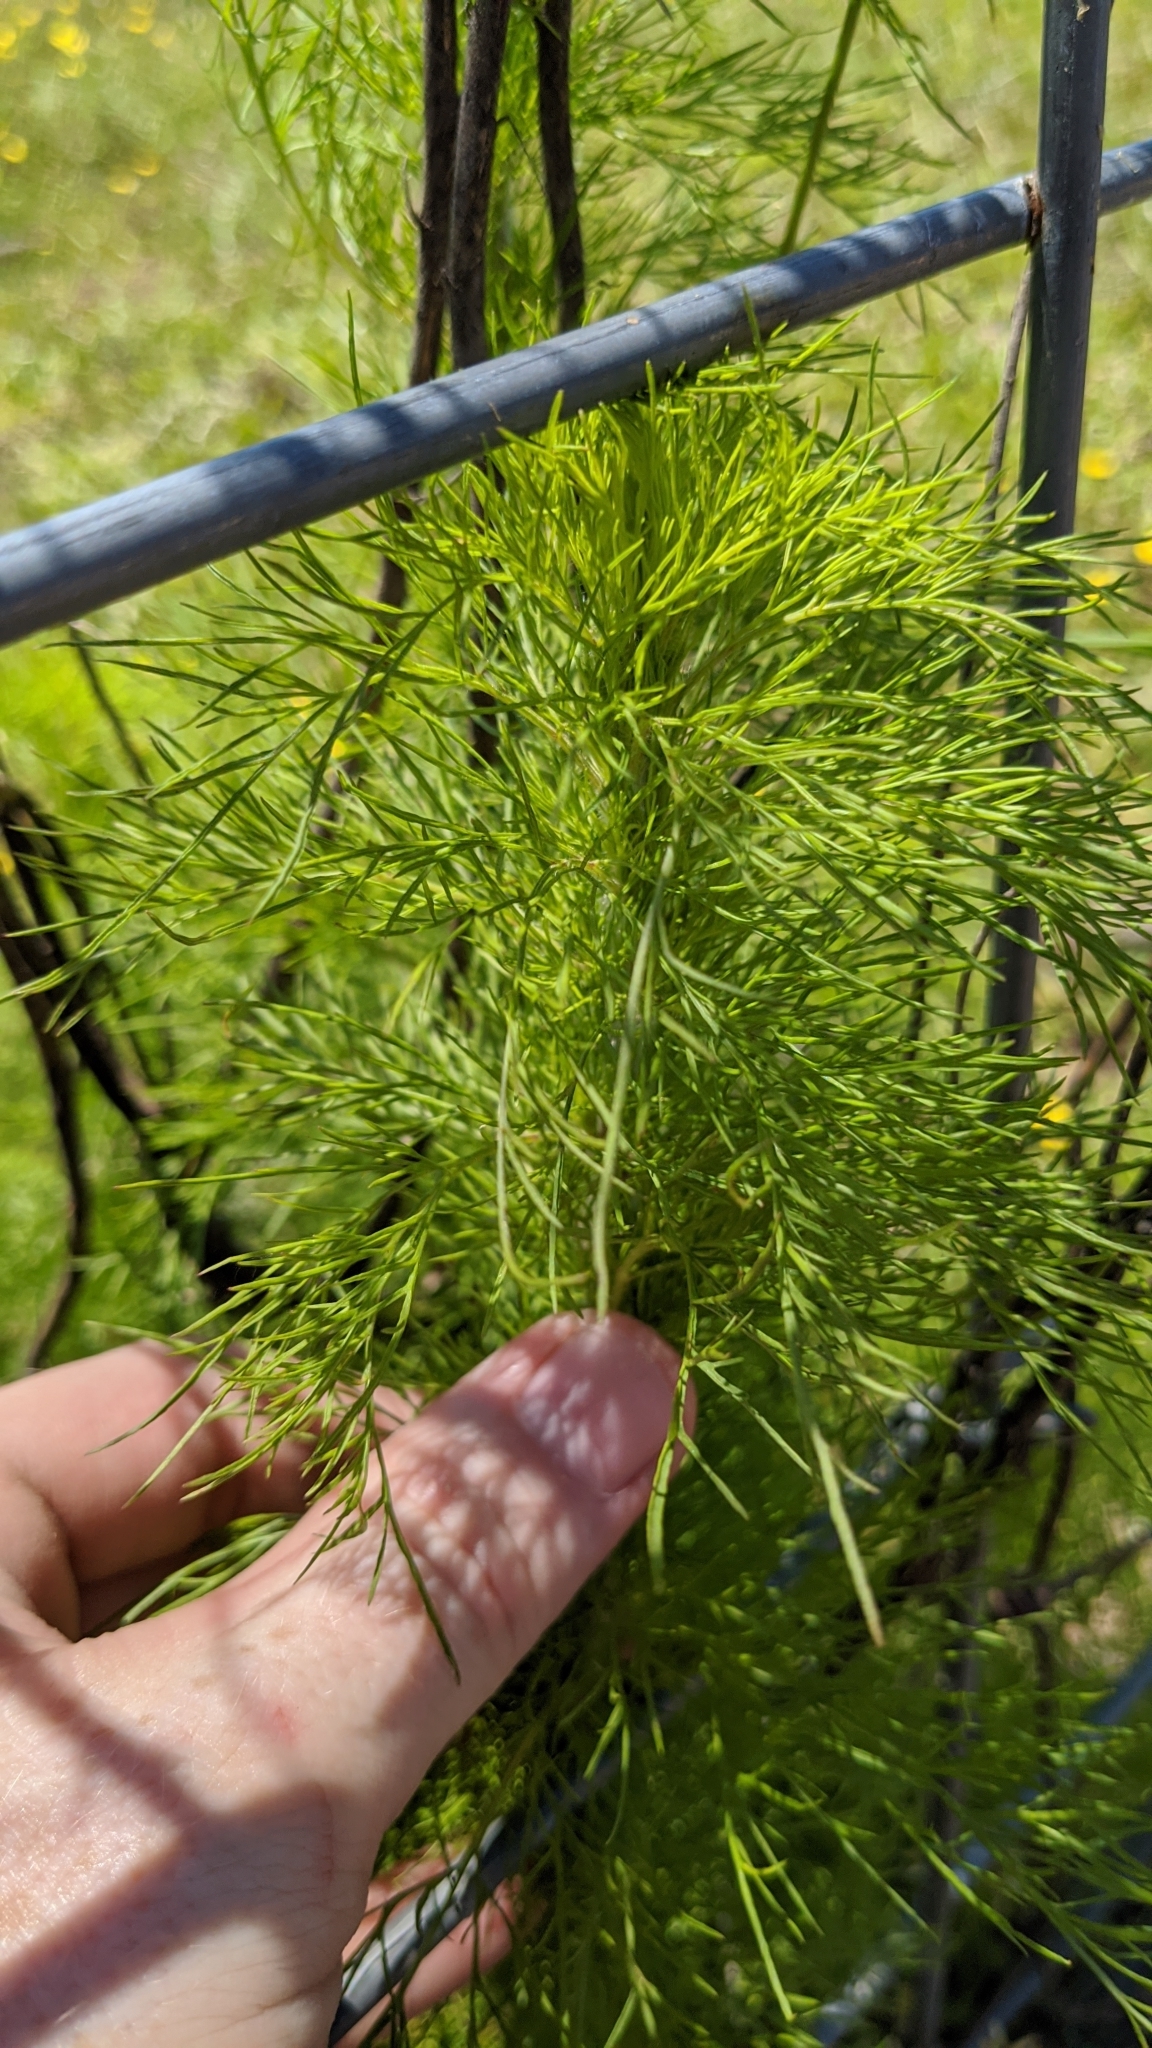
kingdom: Plantae
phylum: Tracheophyta
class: Magnoliopsida
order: Asterales
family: Asteraceae
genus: Eupatorium
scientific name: Eupatorium capillifolium
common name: Dog-fennel
